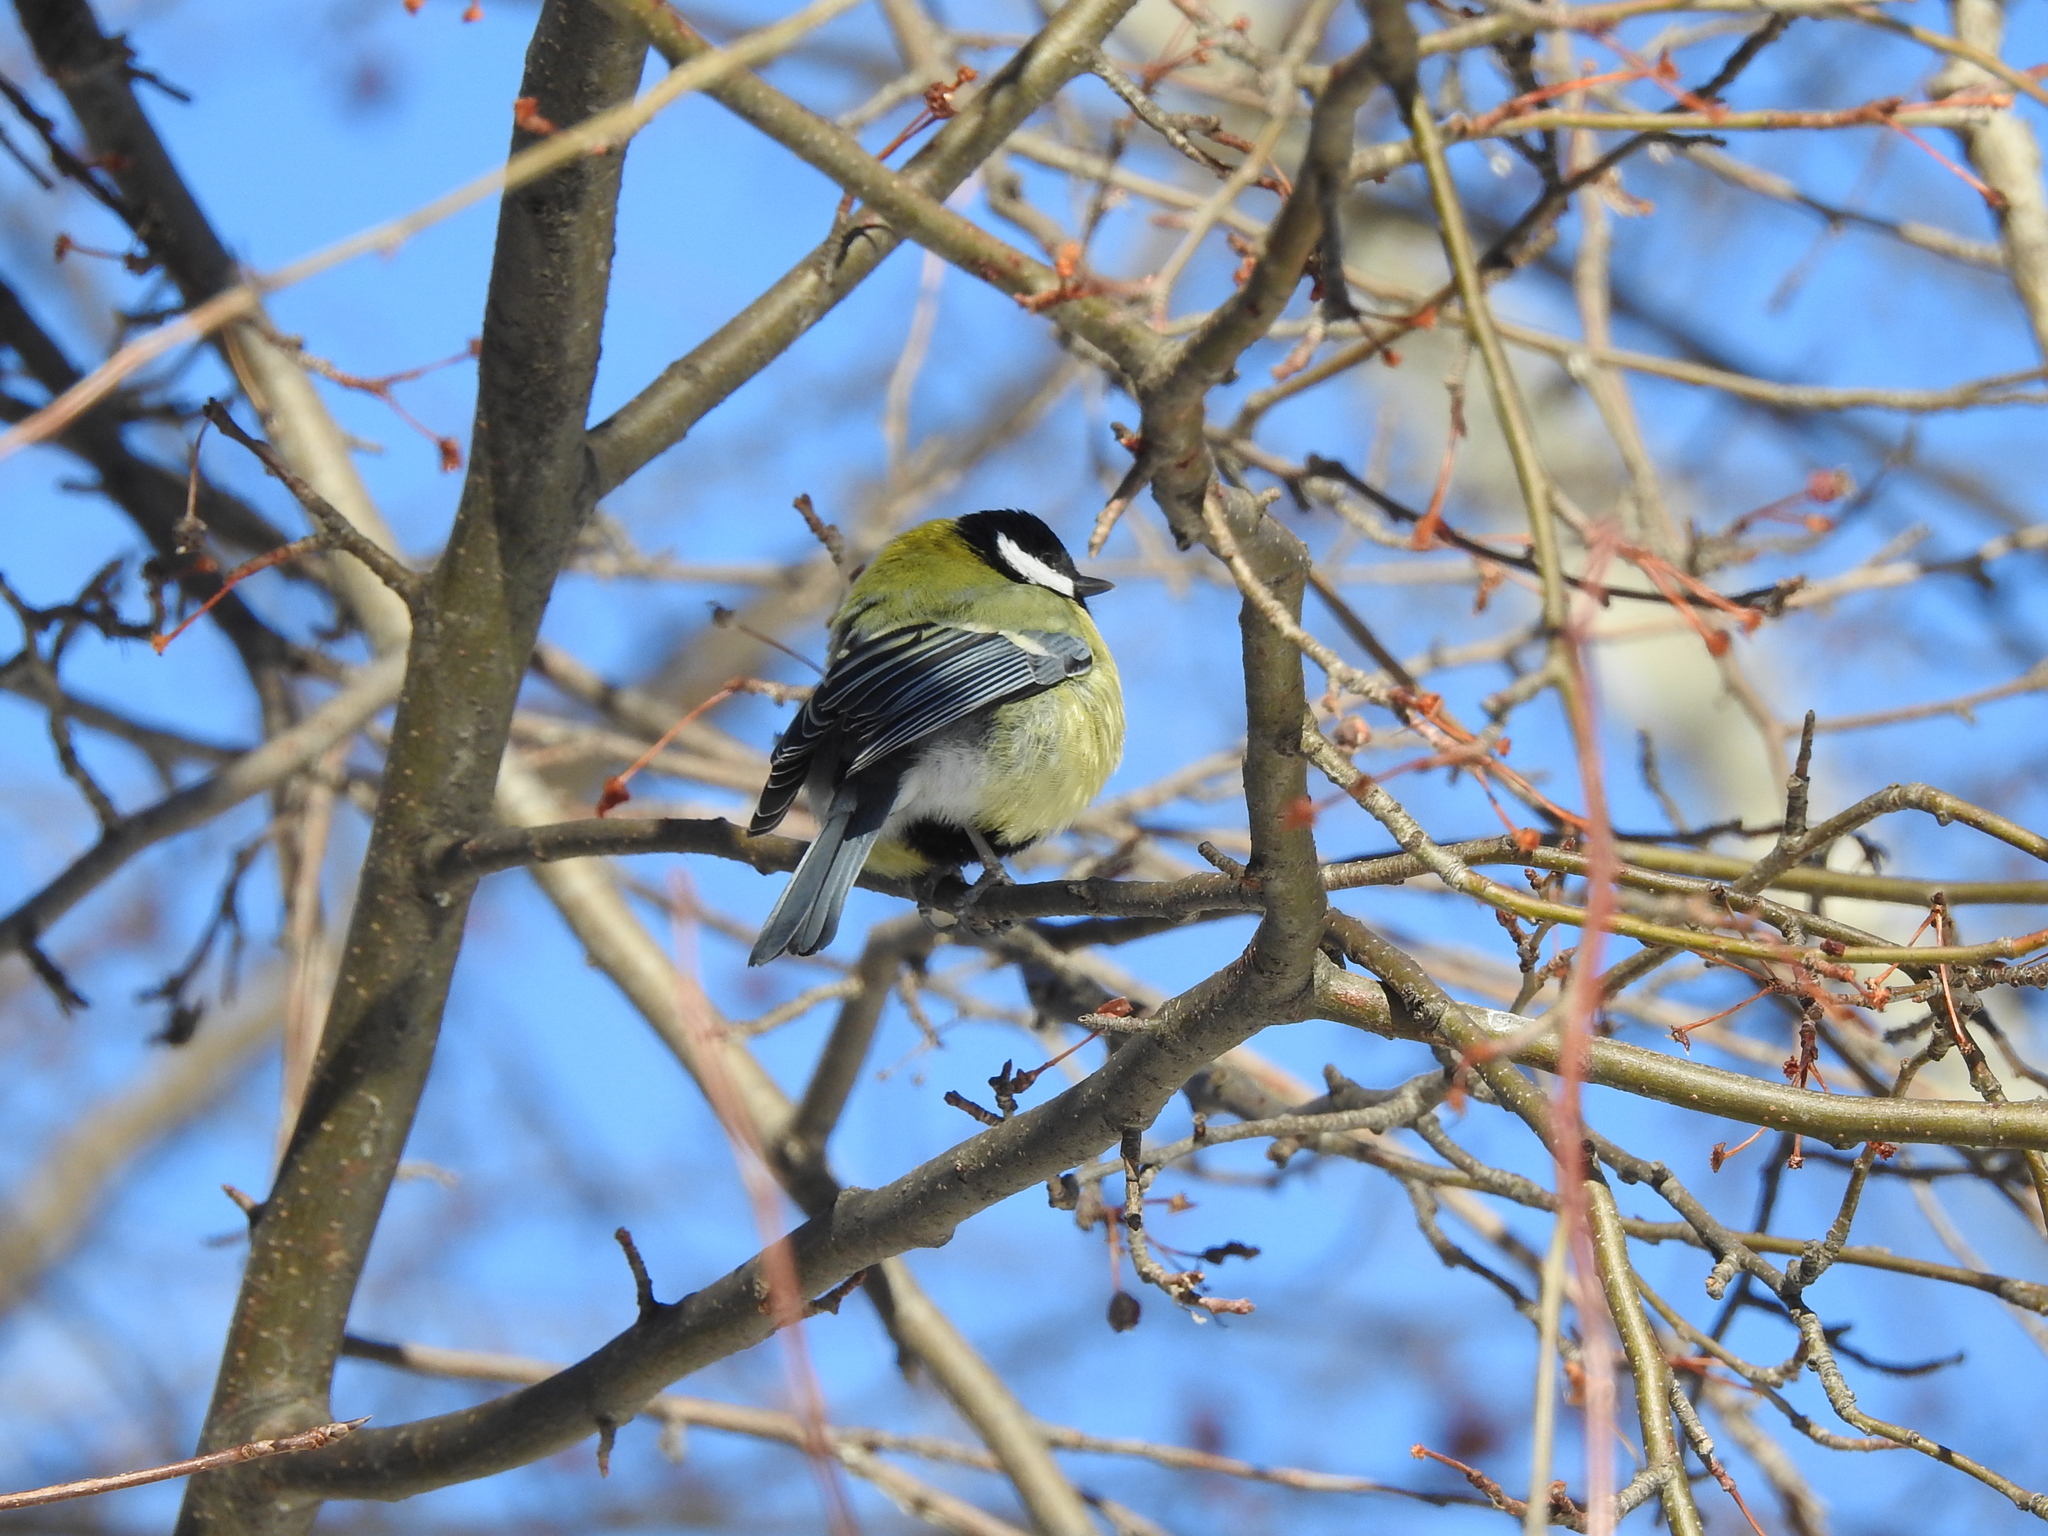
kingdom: Animalia
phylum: Chordata
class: Aves
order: Passeriformes
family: Paridae
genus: Parus
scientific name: Parus major
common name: Great tit
